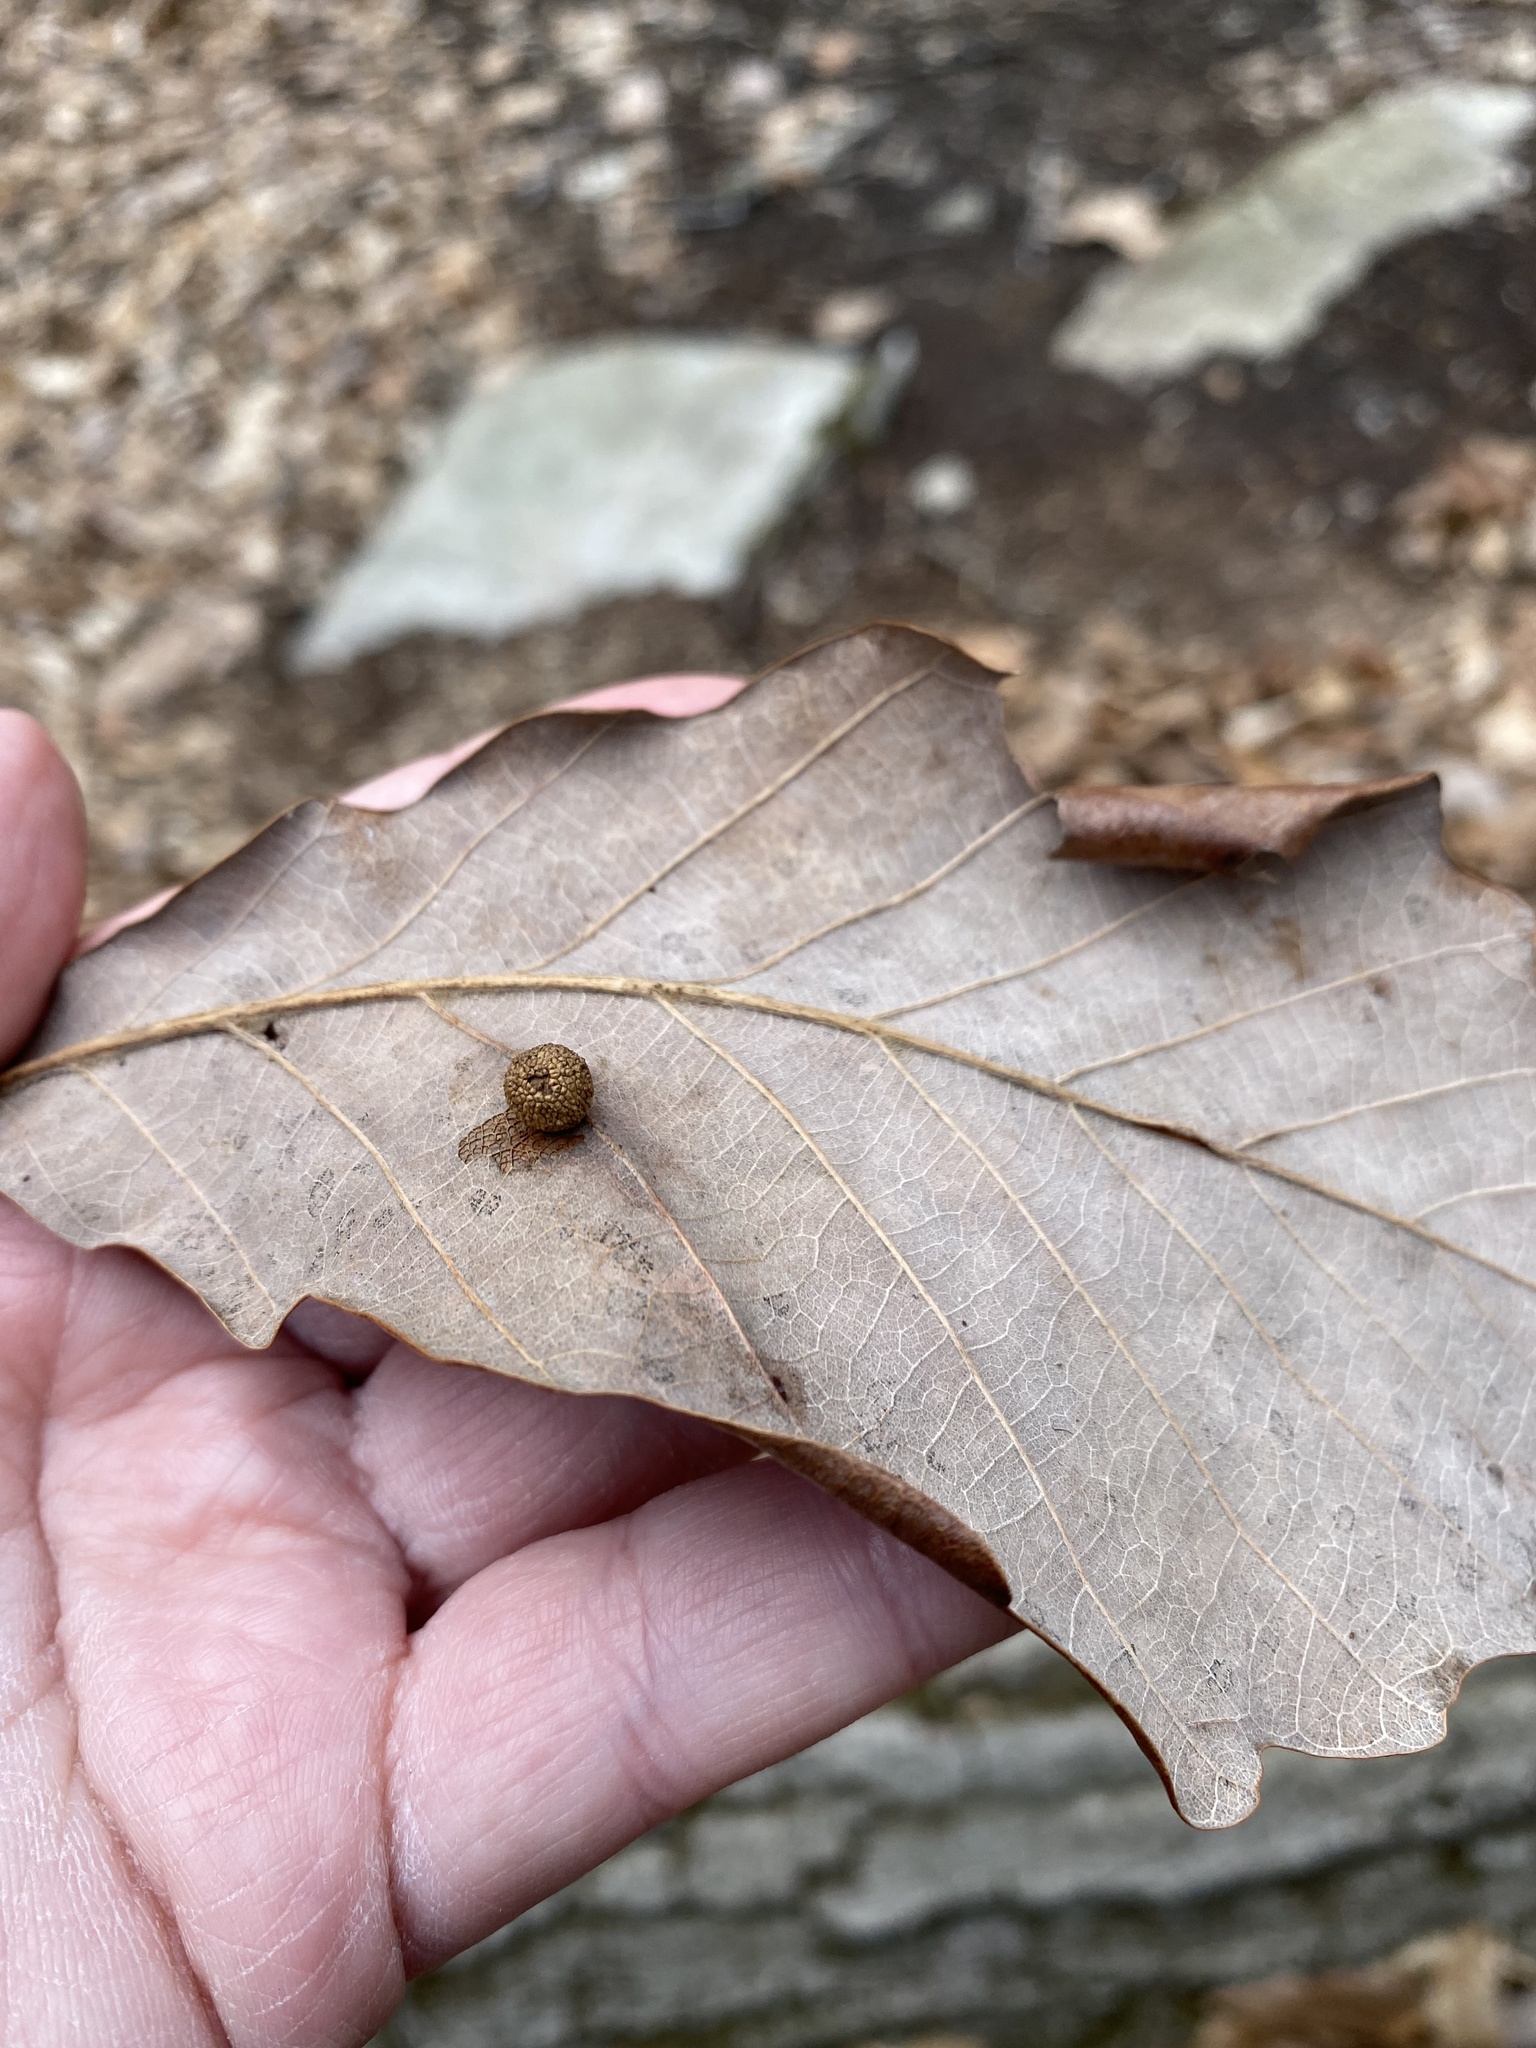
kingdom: Animalia
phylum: Arthropoda
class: Insecta
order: Hymenoptera
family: Cynipidae
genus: Acraspis
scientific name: Acraspis quercushirta
